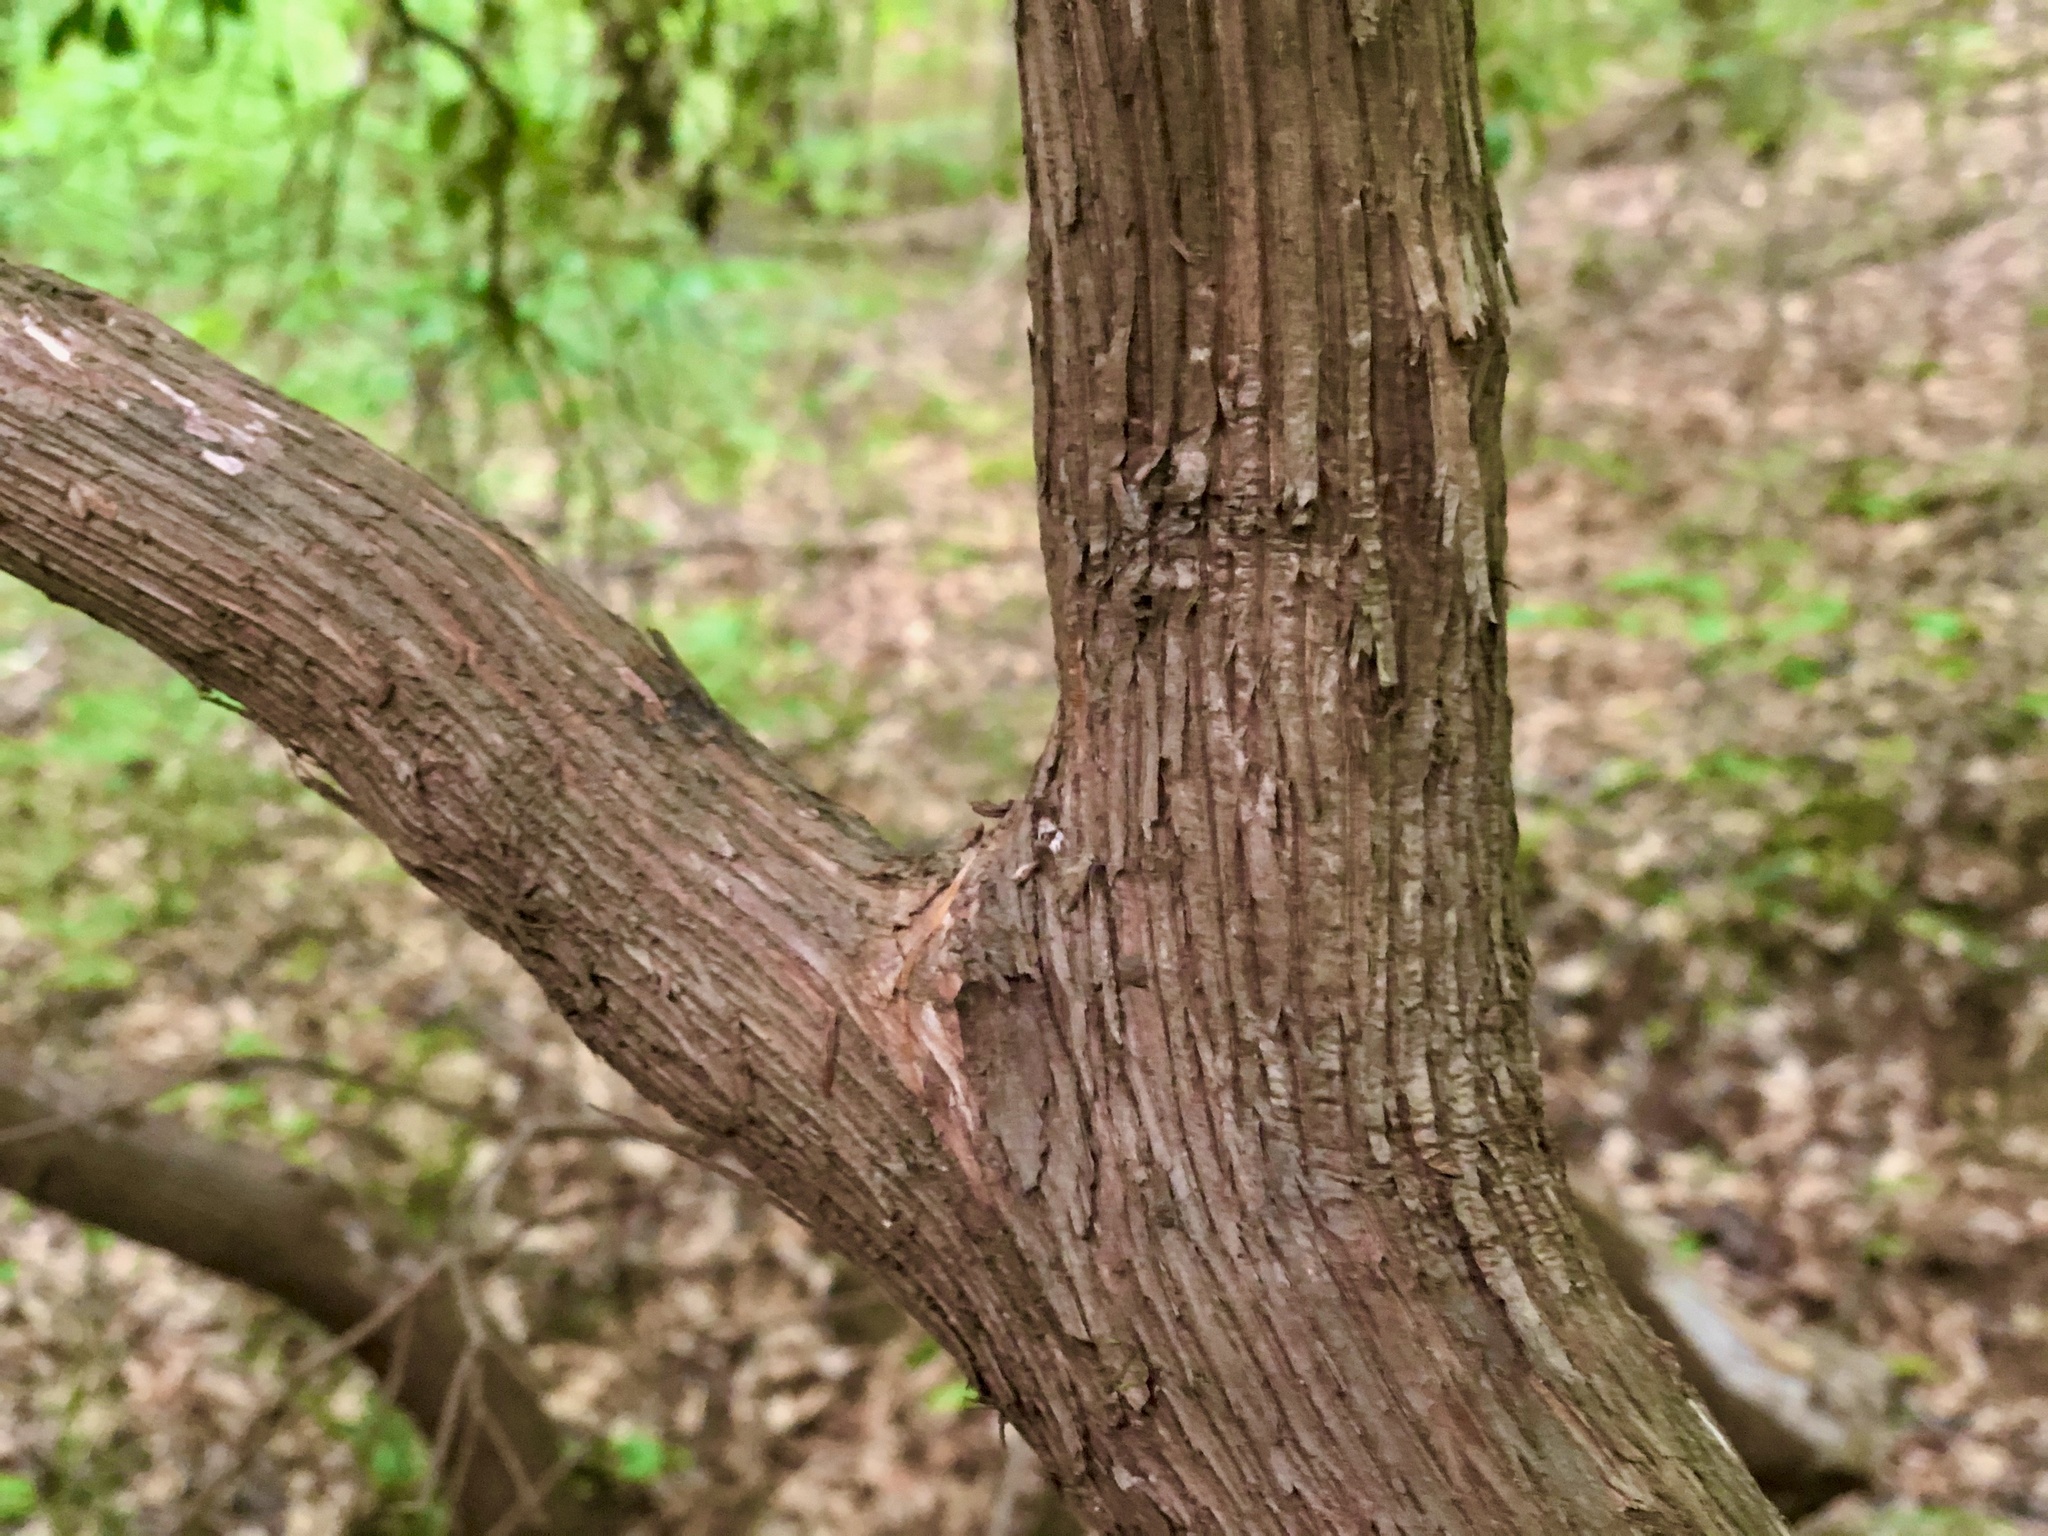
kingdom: Plantae
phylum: Tracheophyta
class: Magnoliopsida
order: Ericales
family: Ericaceae
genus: Kalmia
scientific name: Kalmia latifolia
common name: Mountain-laurel
